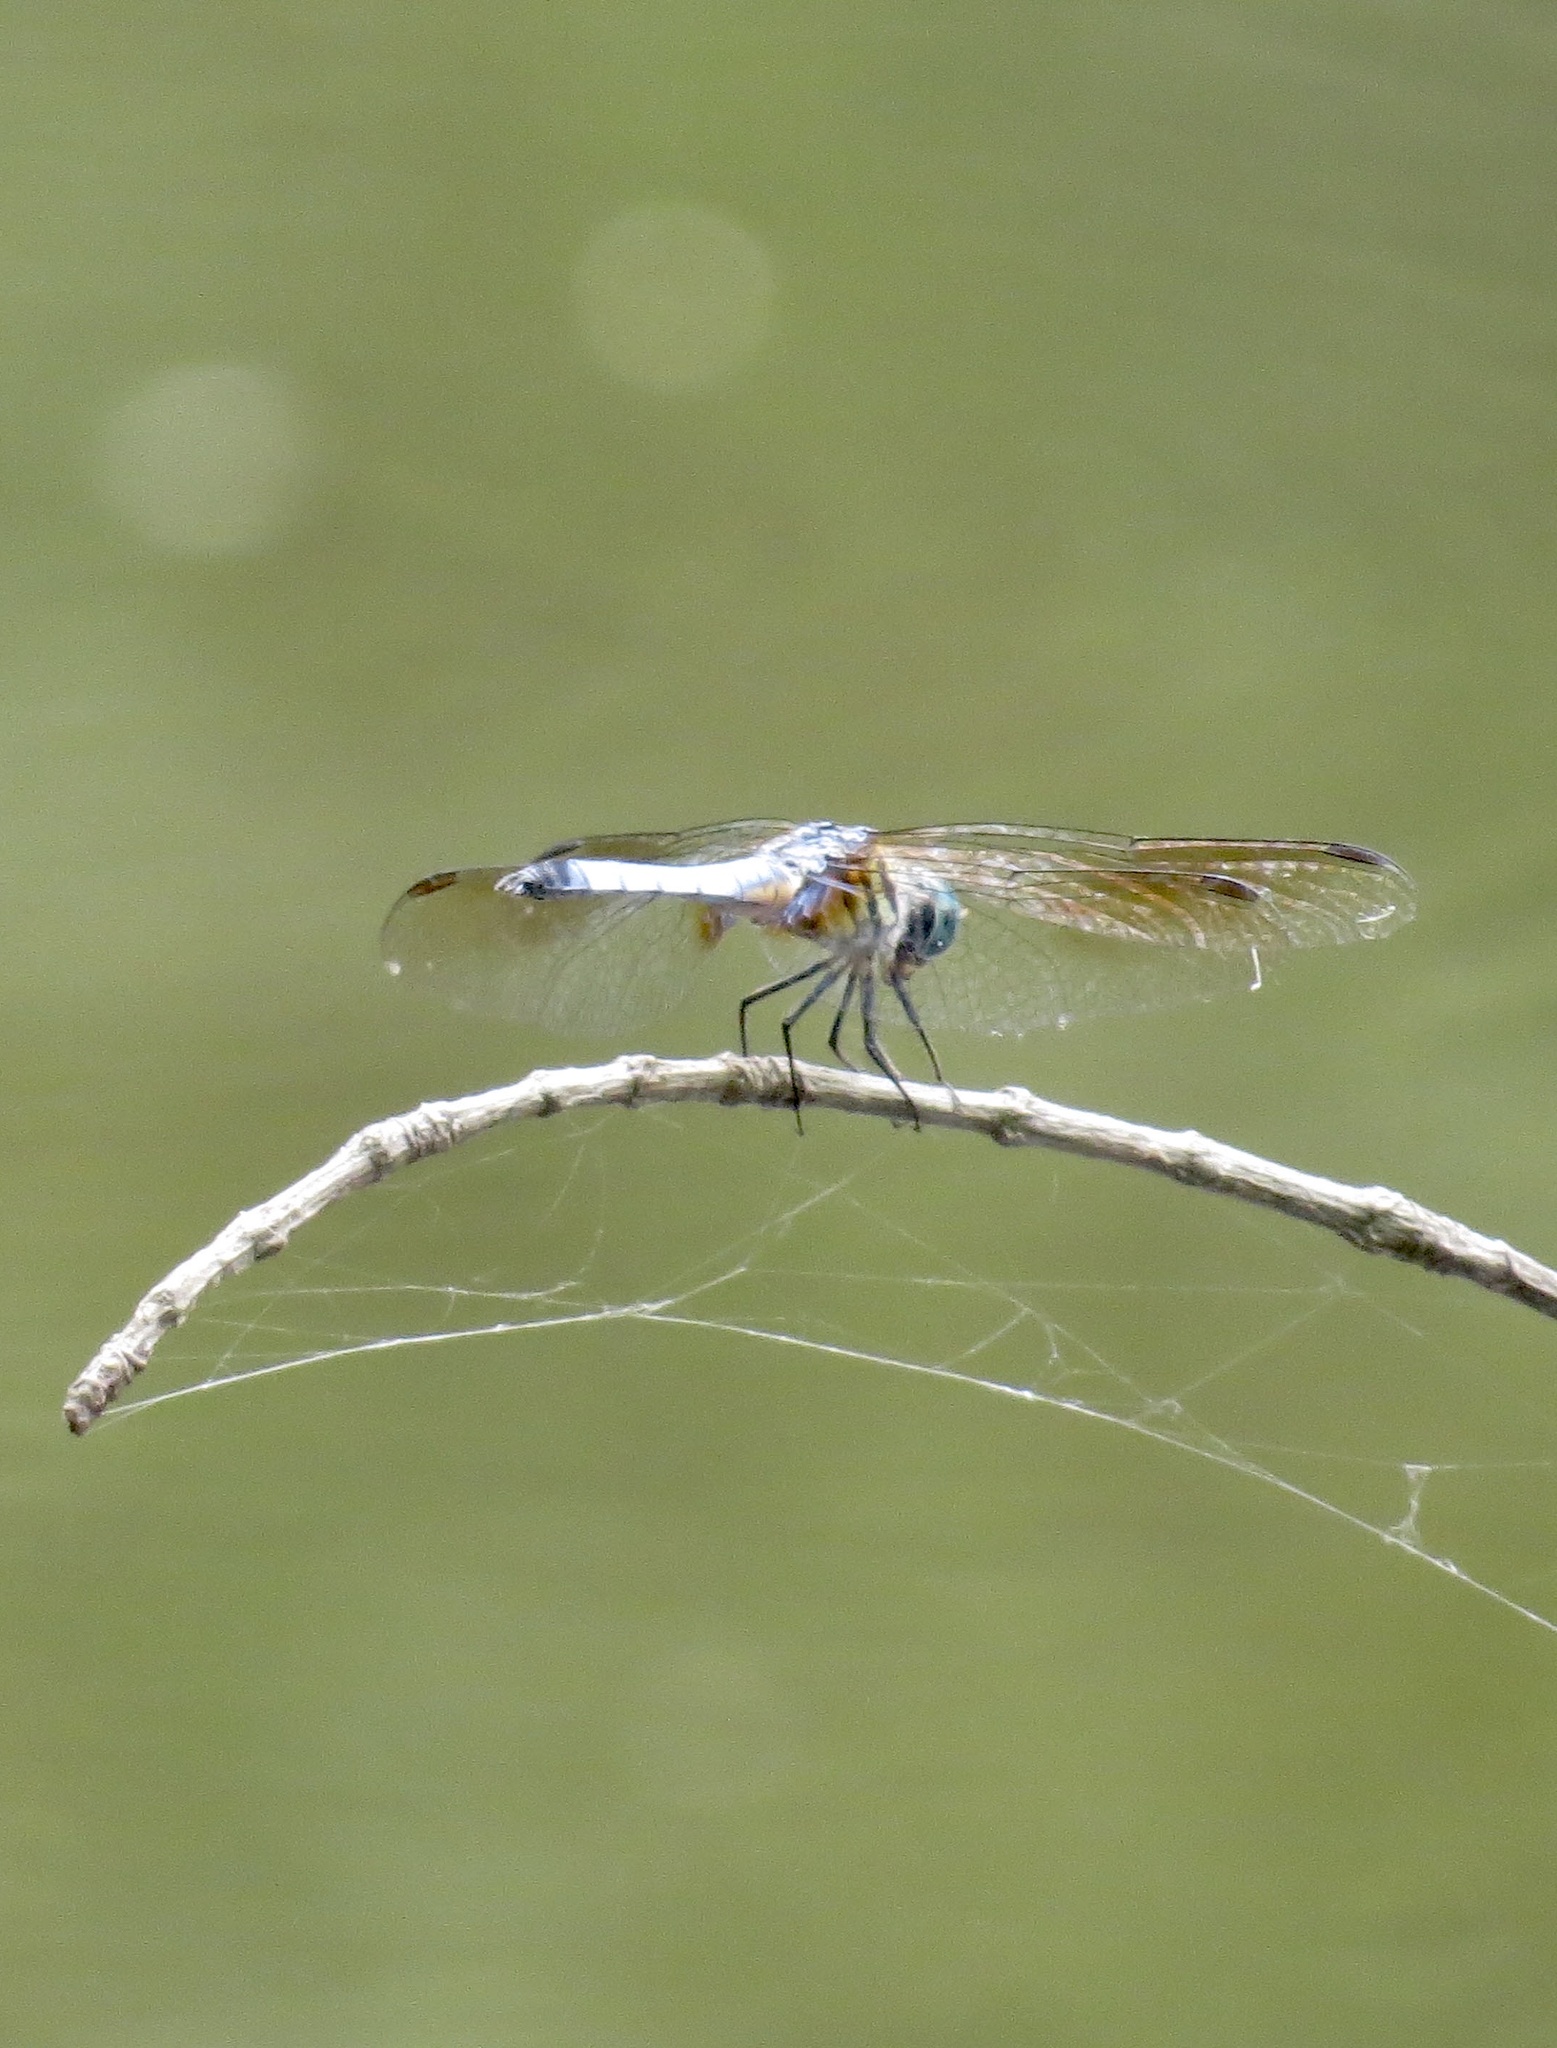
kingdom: Animalia
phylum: Arthropoda
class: Insecta
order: Odonata
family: Libellulidae
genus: Pachydiplax
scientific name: Pachydiplax longipennis
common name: Blue dasher
